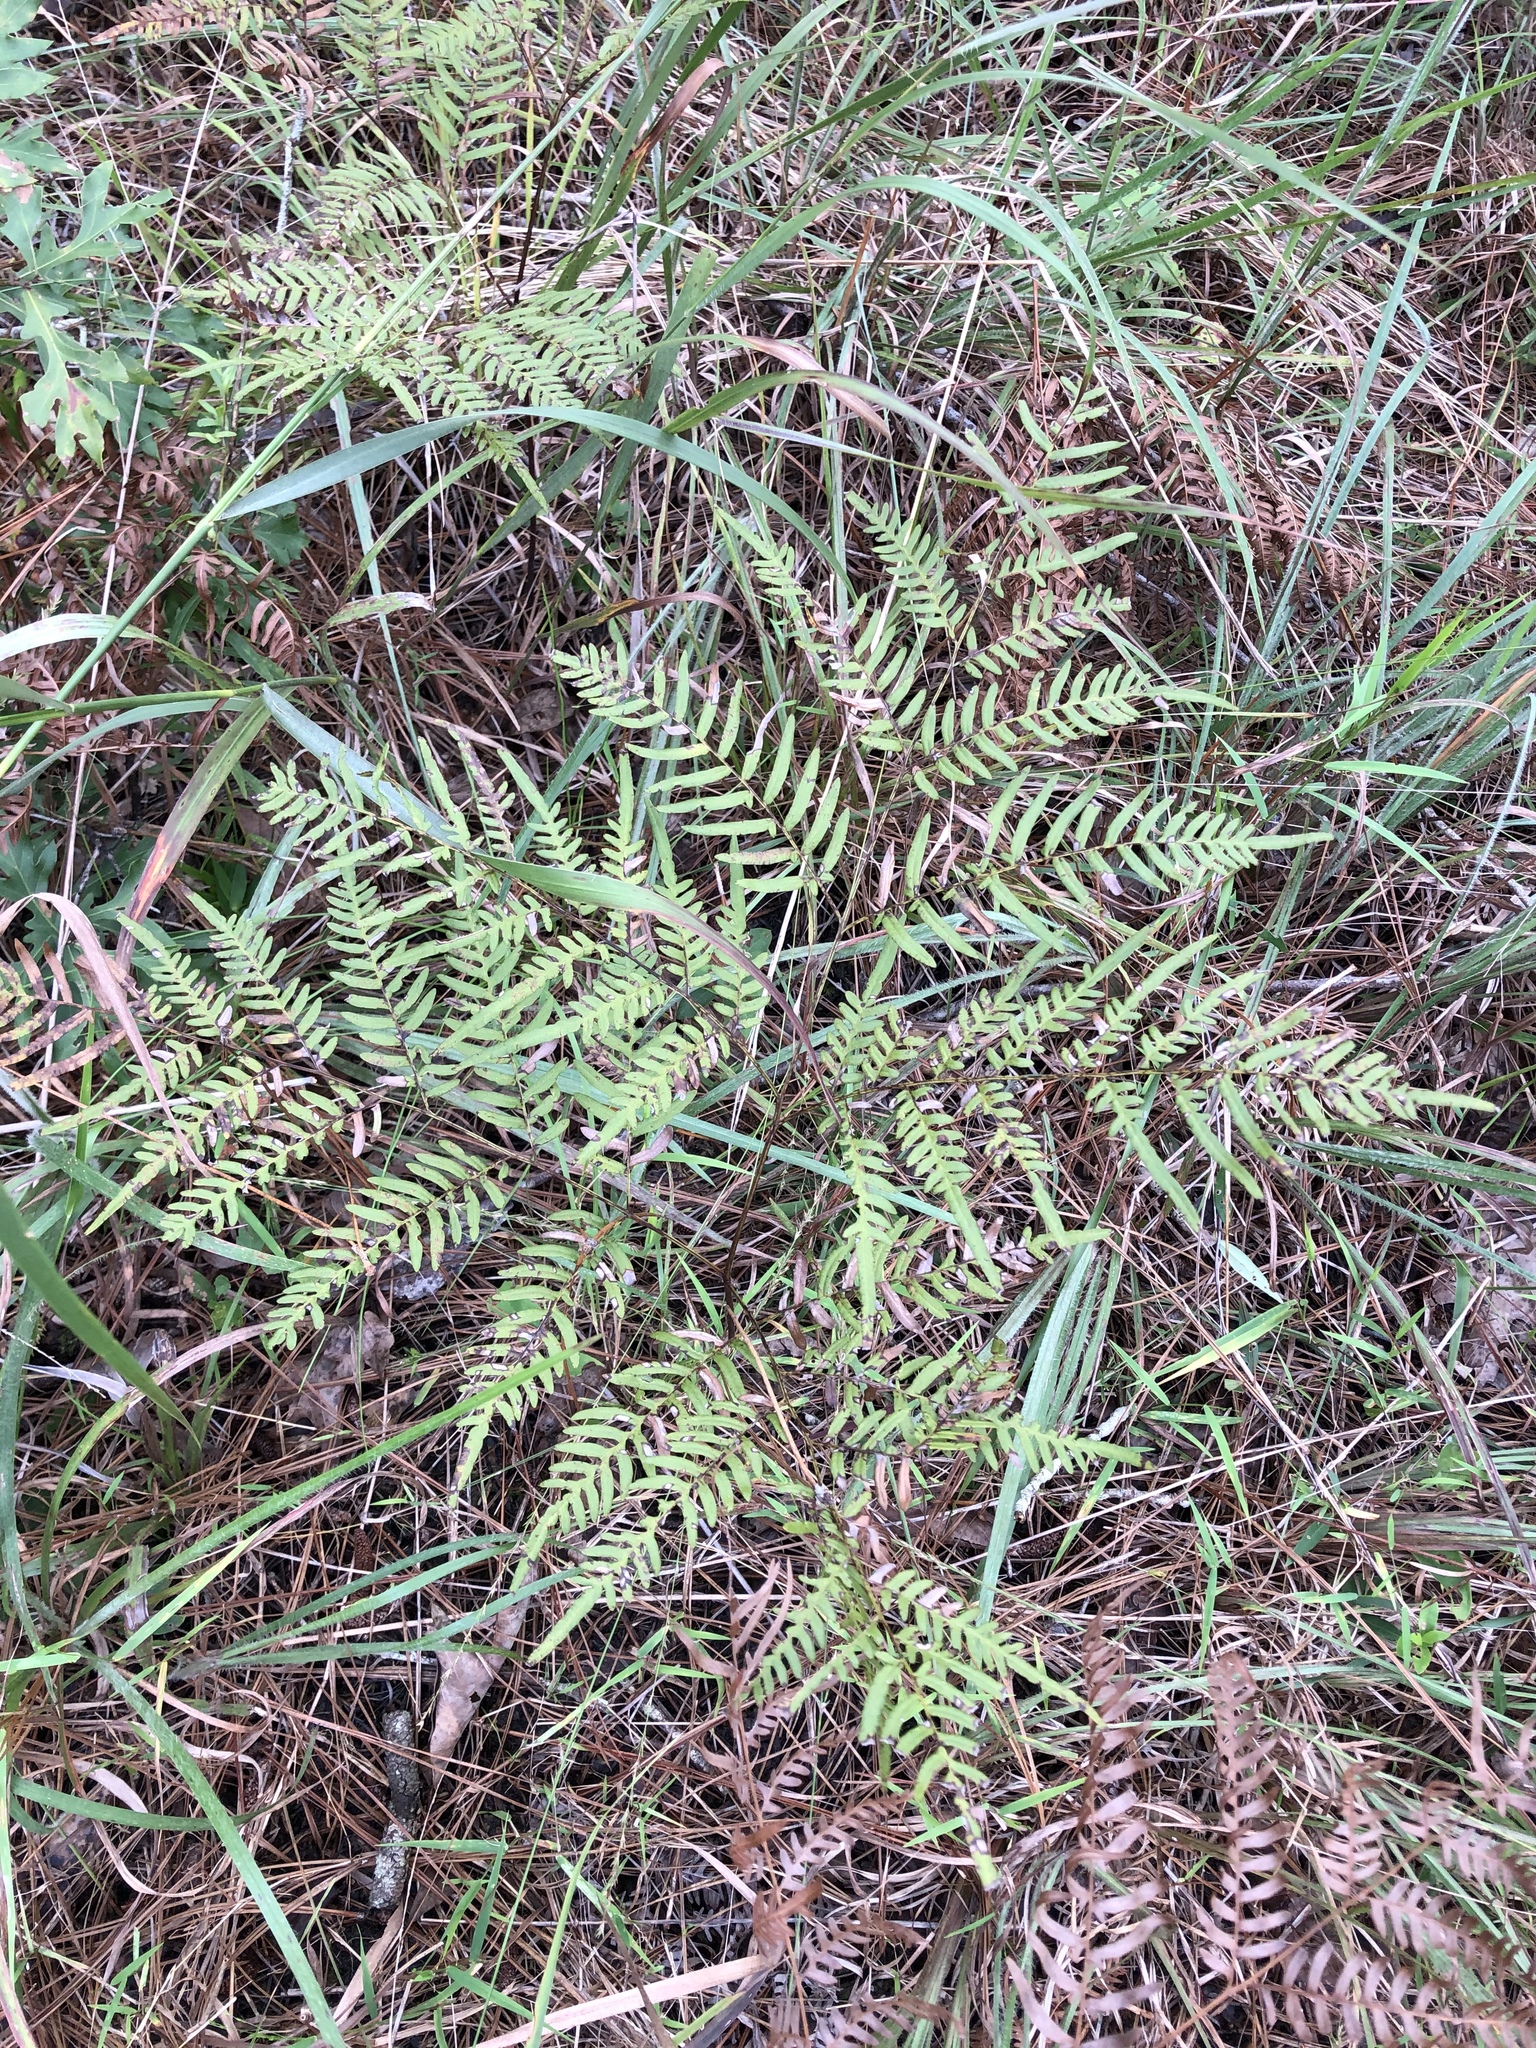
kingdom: Plantae
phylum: Tracheophyta
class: Polypodiopsida
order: Polypodiales
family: Dennstaedtiaceae
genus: Pteridium
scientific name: Pteridium
